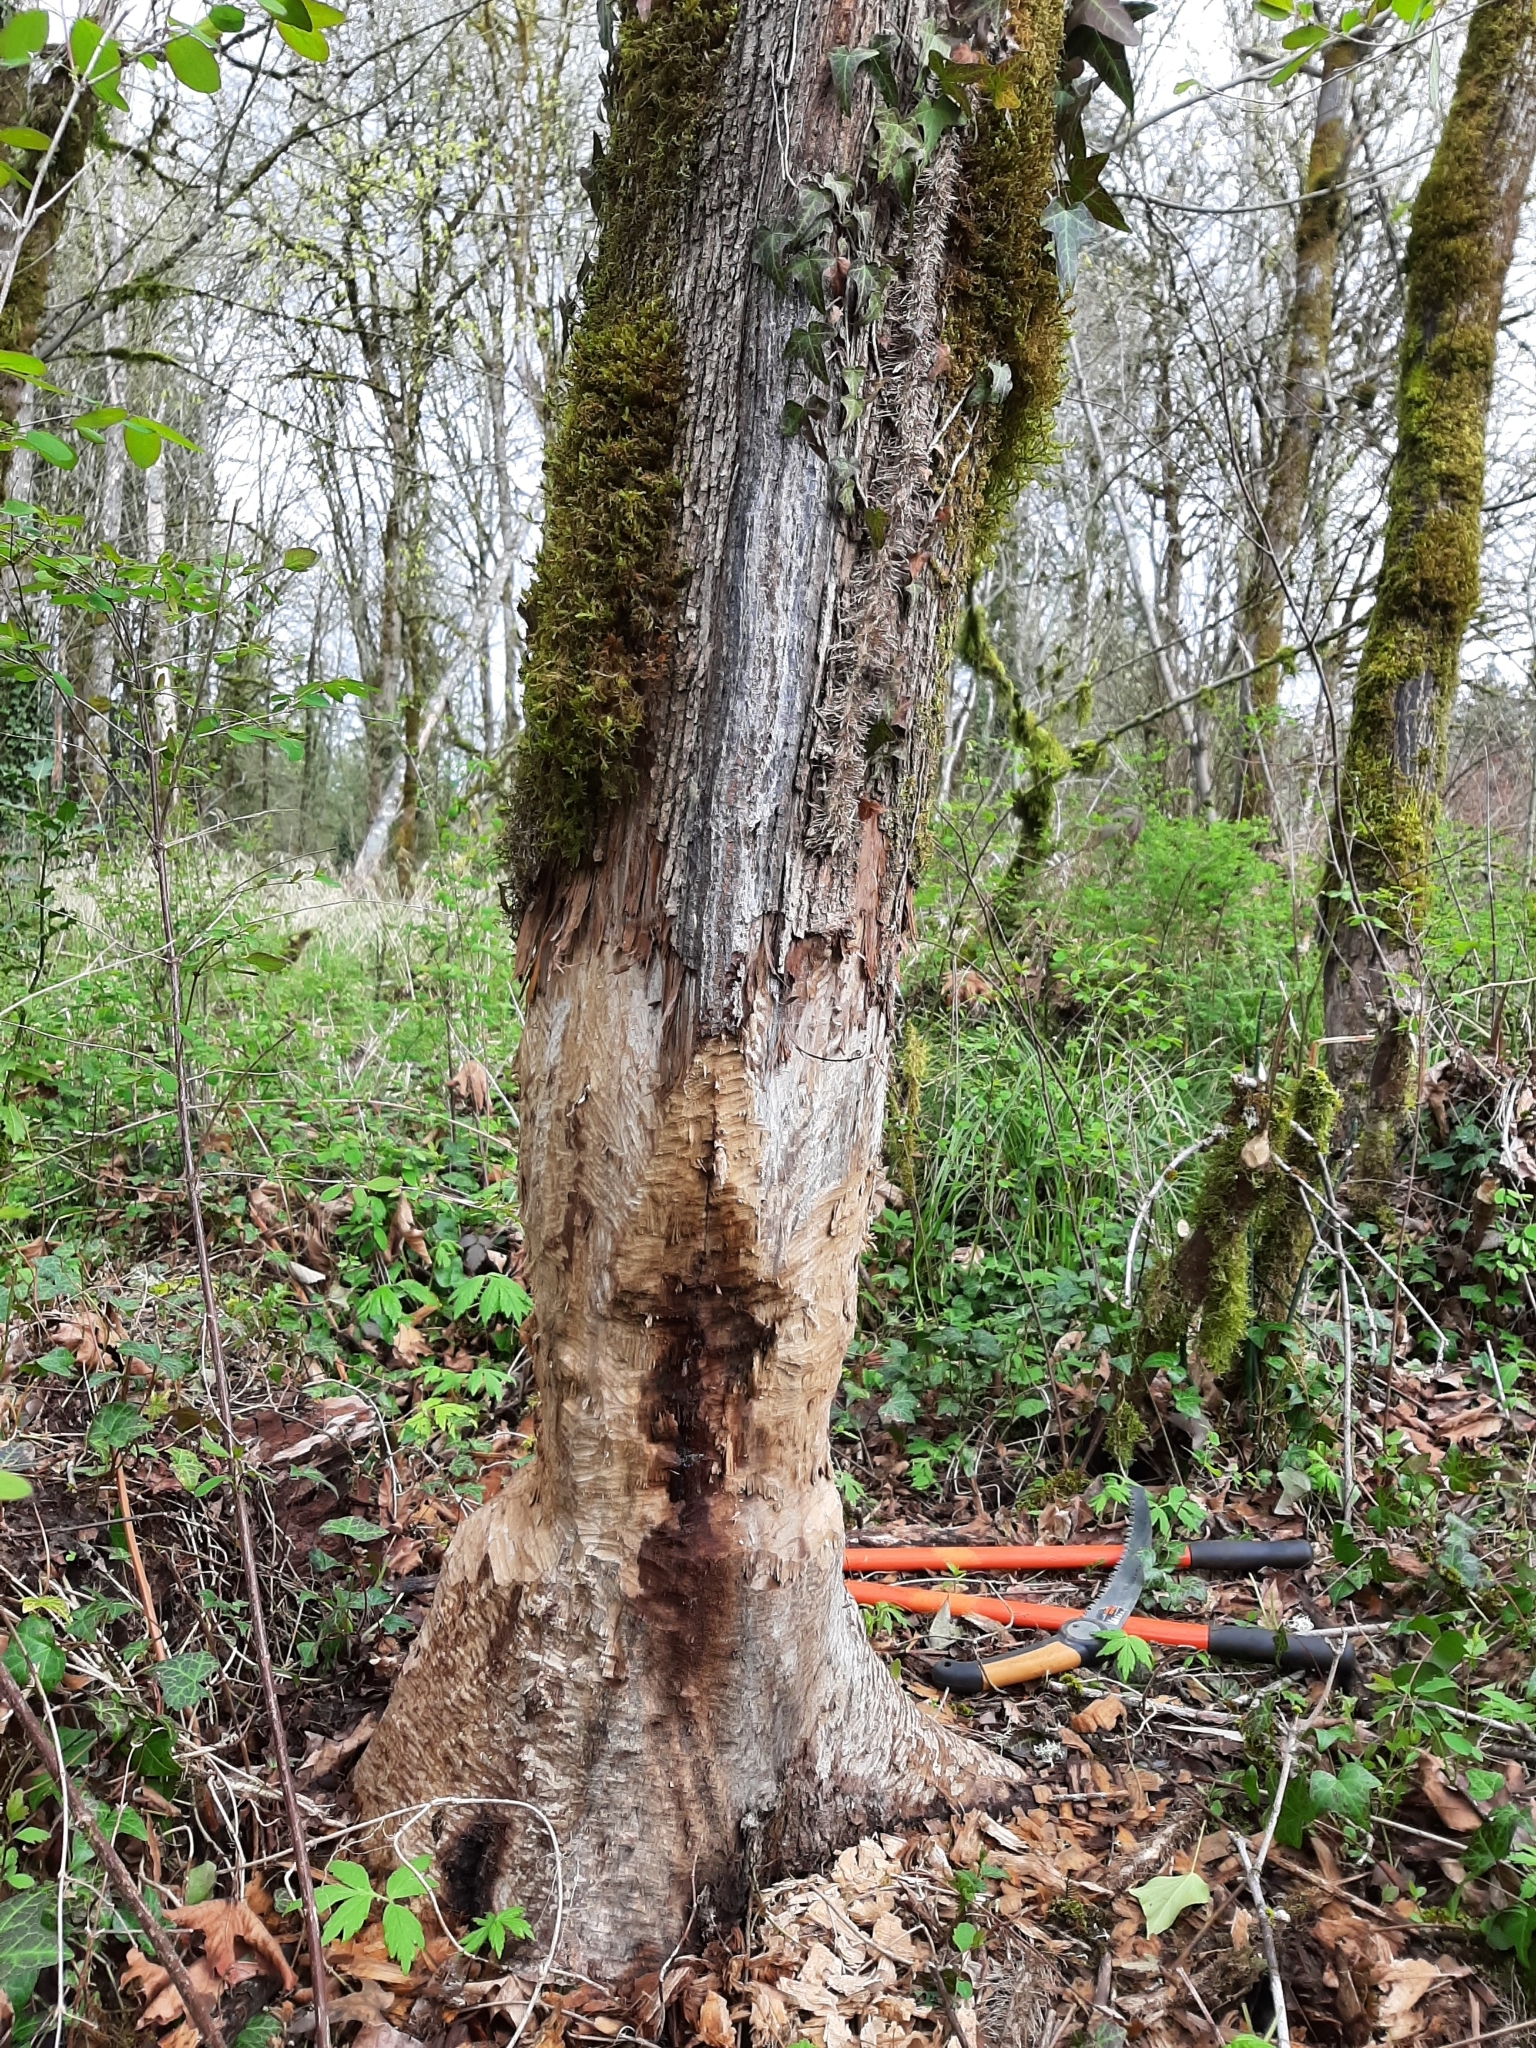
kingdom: Animalia
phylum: Chordata
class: Mammalia
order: Rodentia
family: Castoridae
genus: Castor
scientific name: Castor canadensis
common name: American beaver
